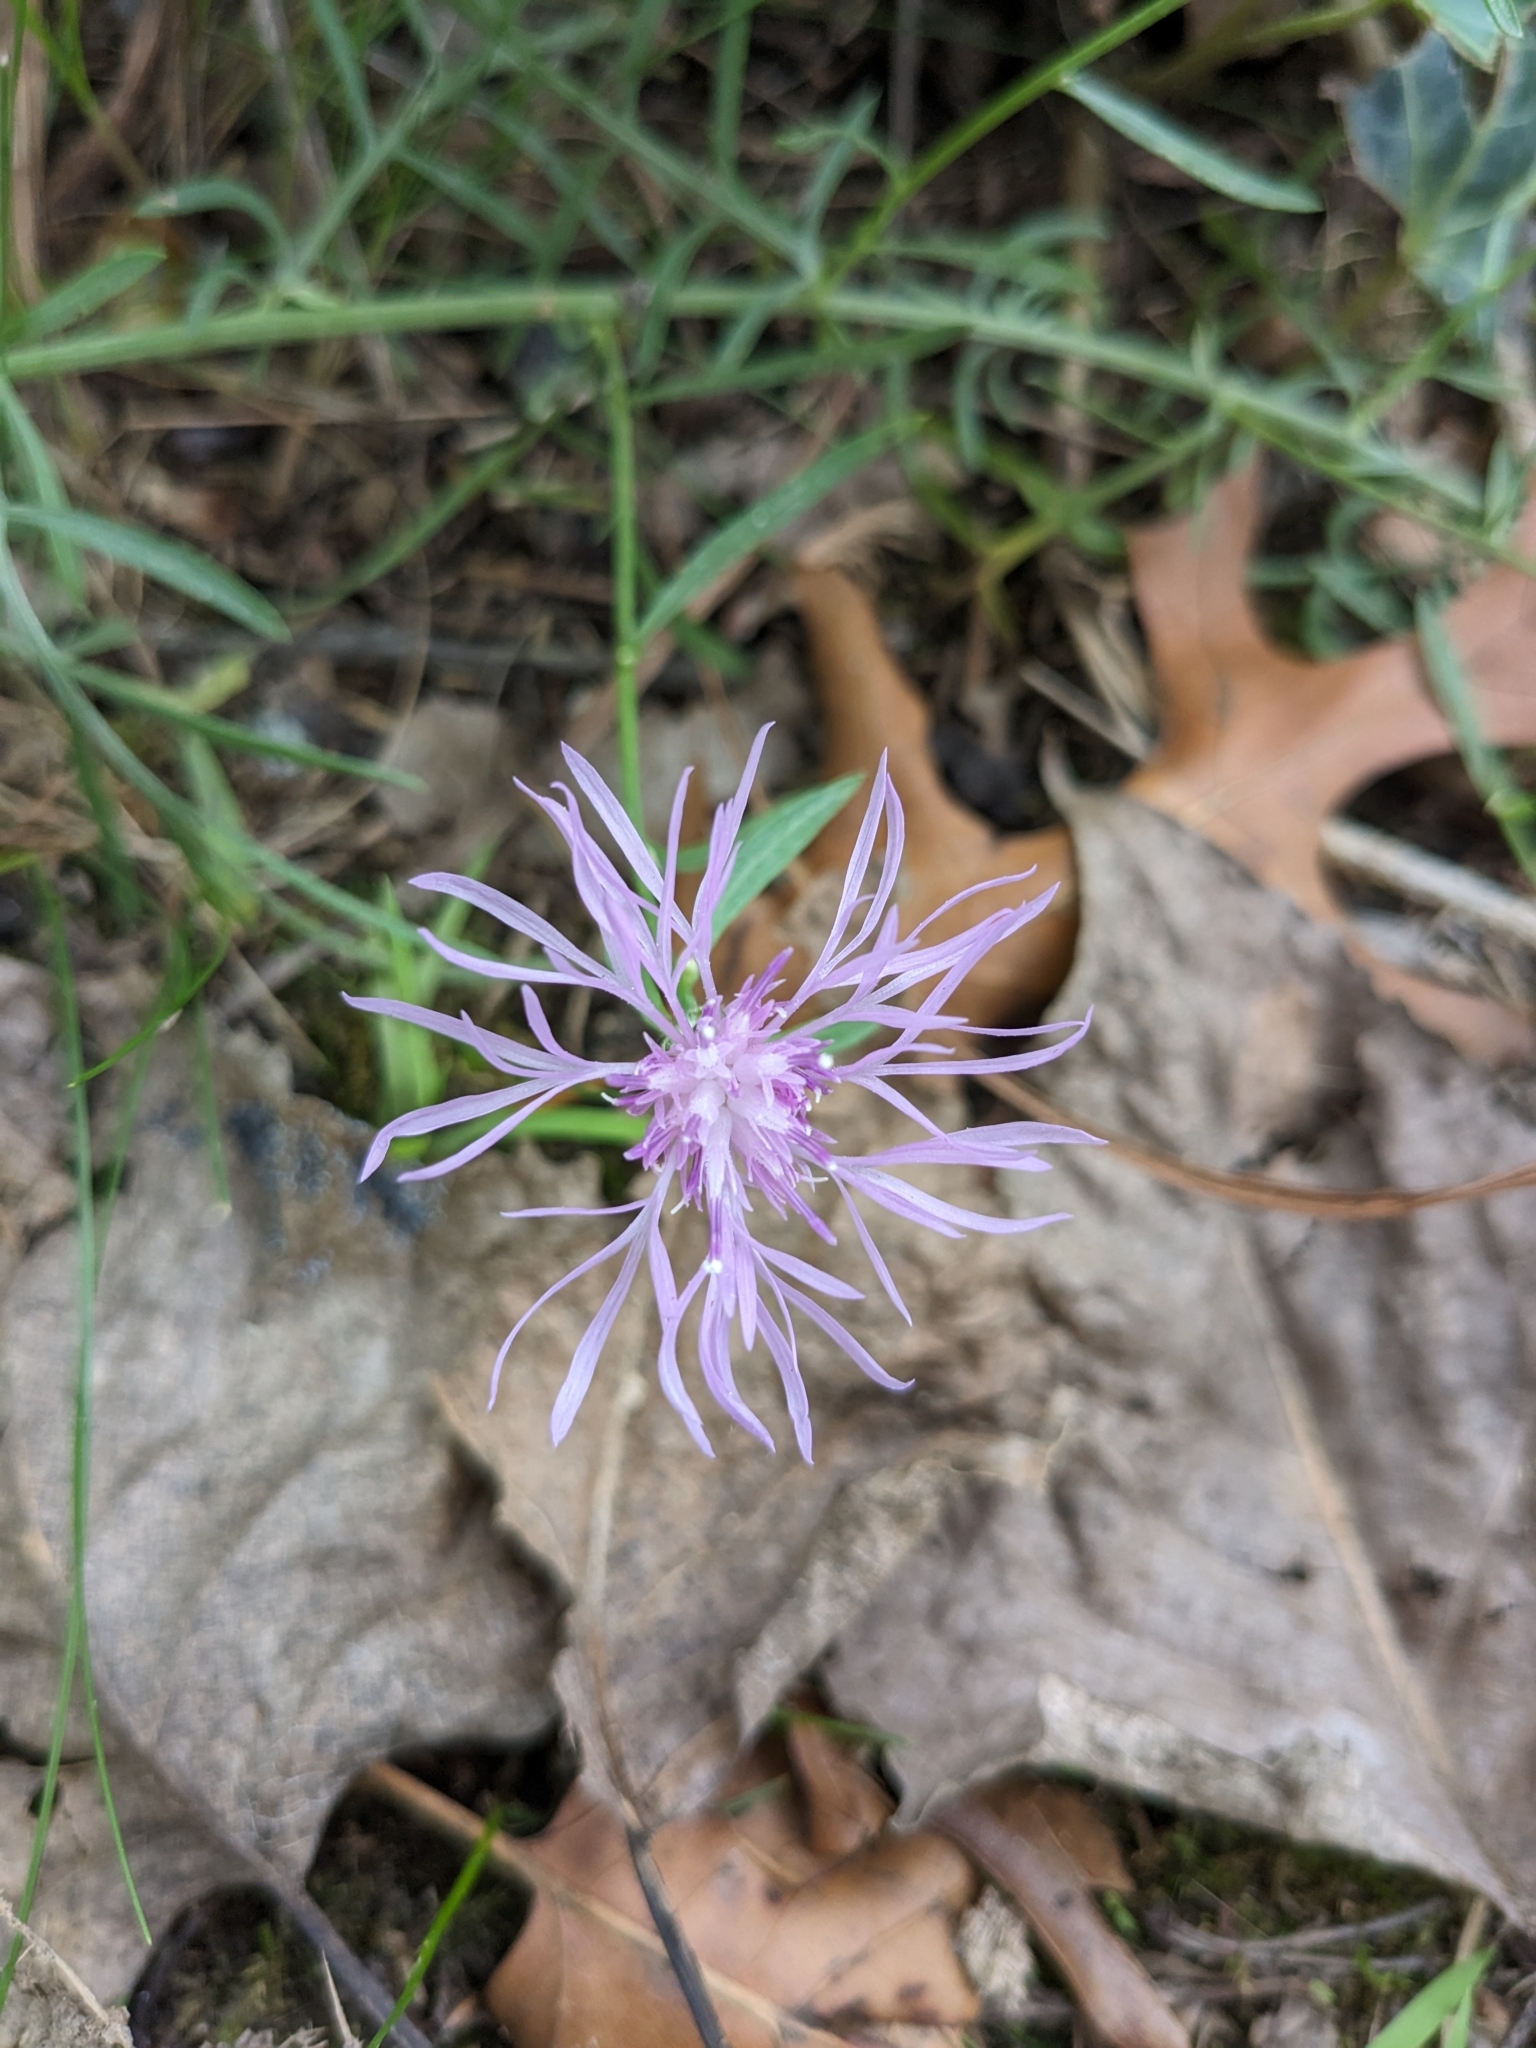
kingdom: Plantae
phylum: Tracheophyta
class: Magnoliopsida
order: Asterales
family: Asteraceae
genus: Centaurea
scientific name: Centaurea stoebe
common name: Spotted knapweed
